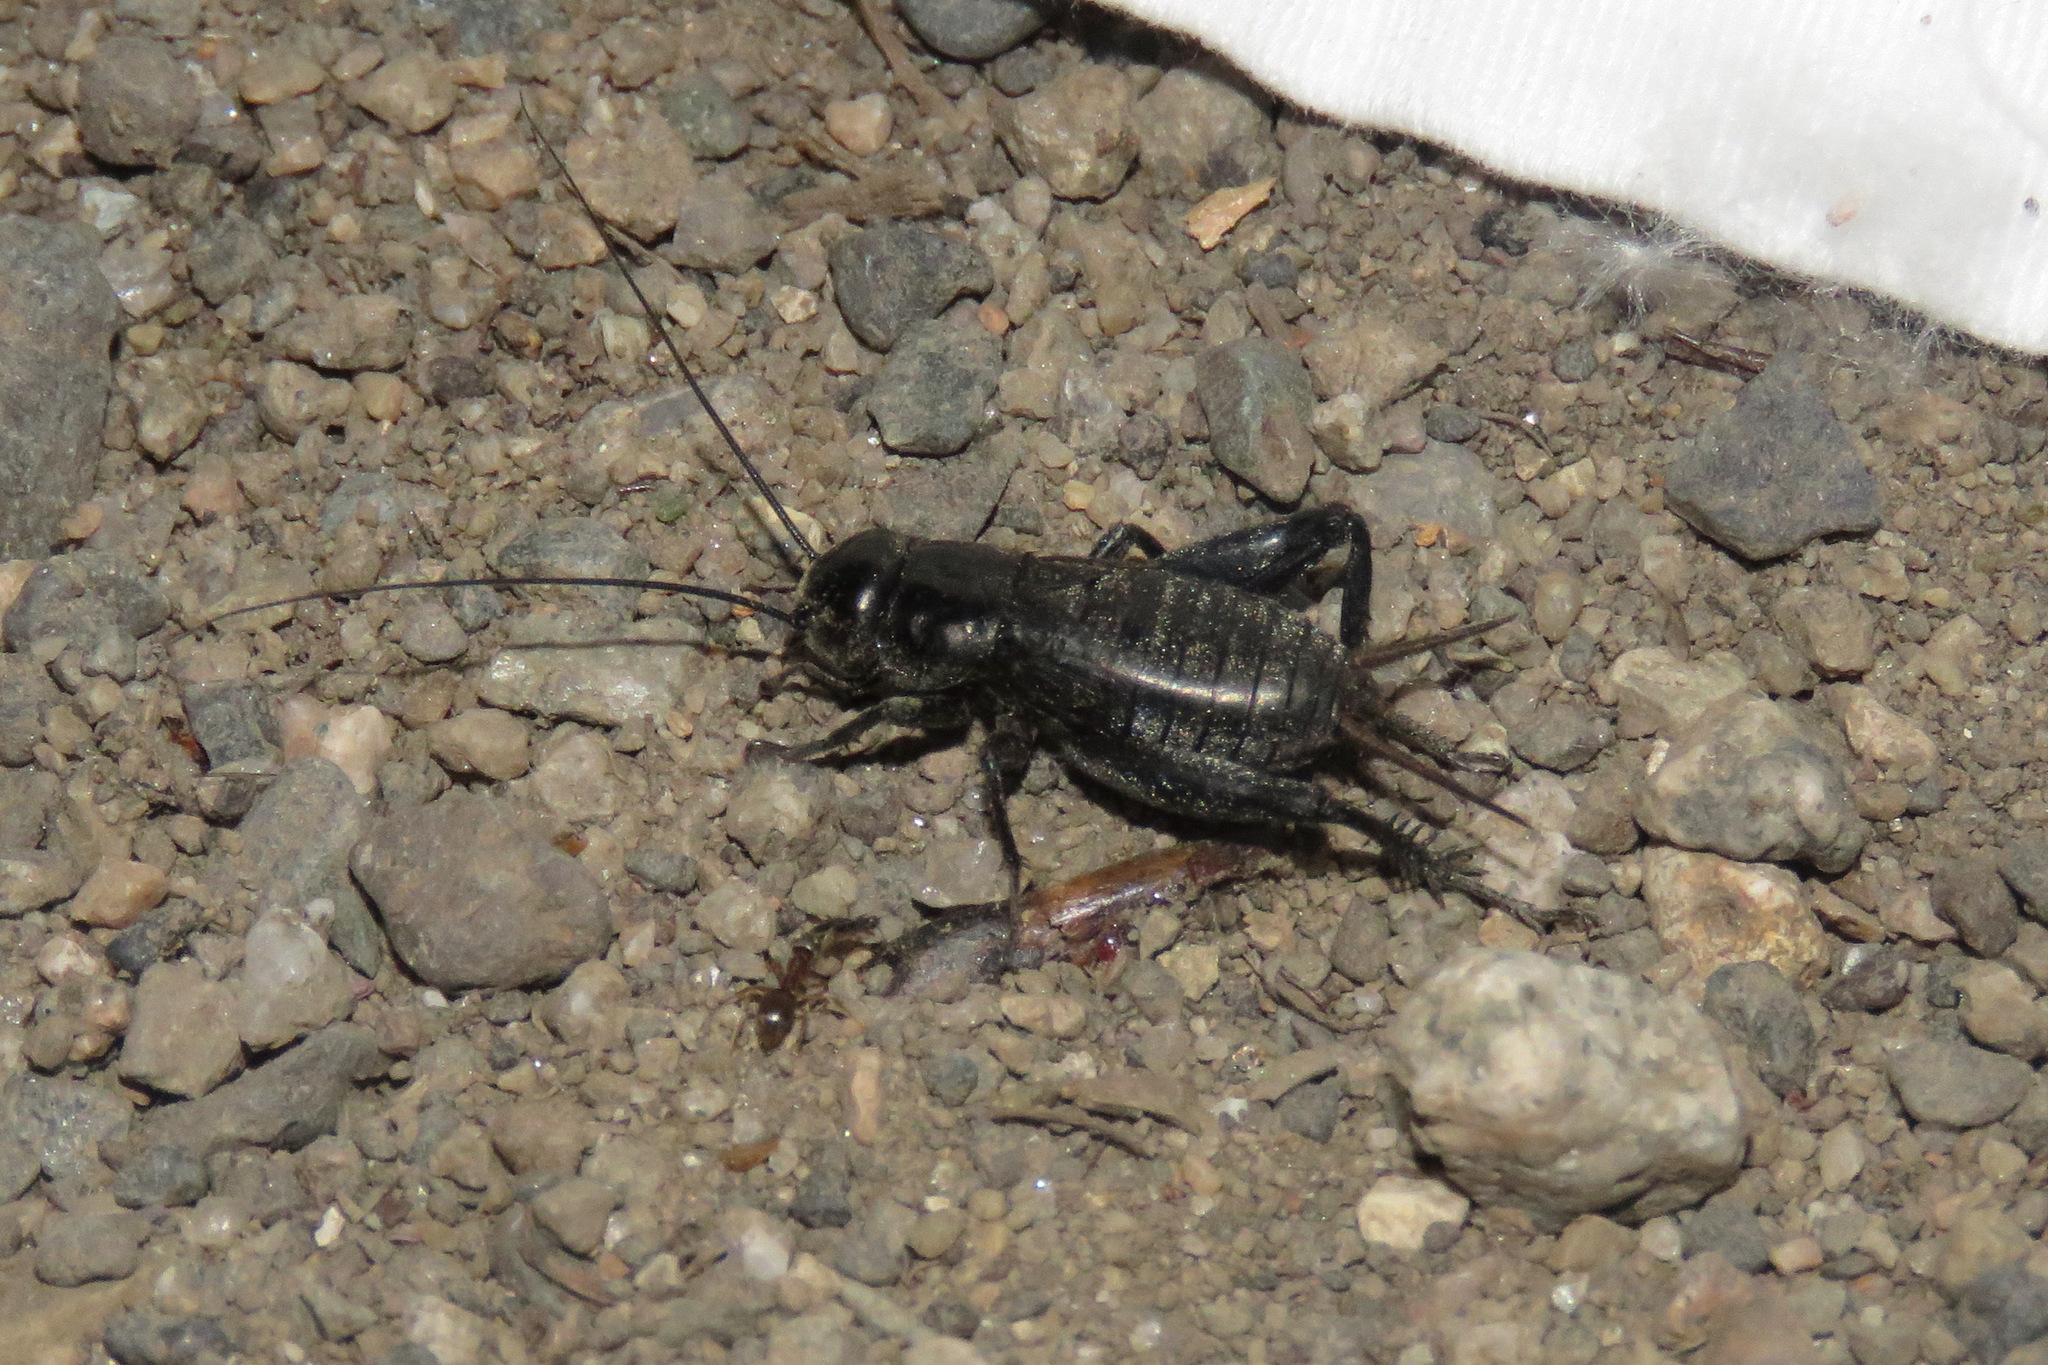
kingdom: Animalia
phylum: Arthropoda
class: Insecta
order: Orthoptera
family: Gryllidae
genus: Gryllus
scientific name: Gryllus veletis
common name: Spring field cricket
